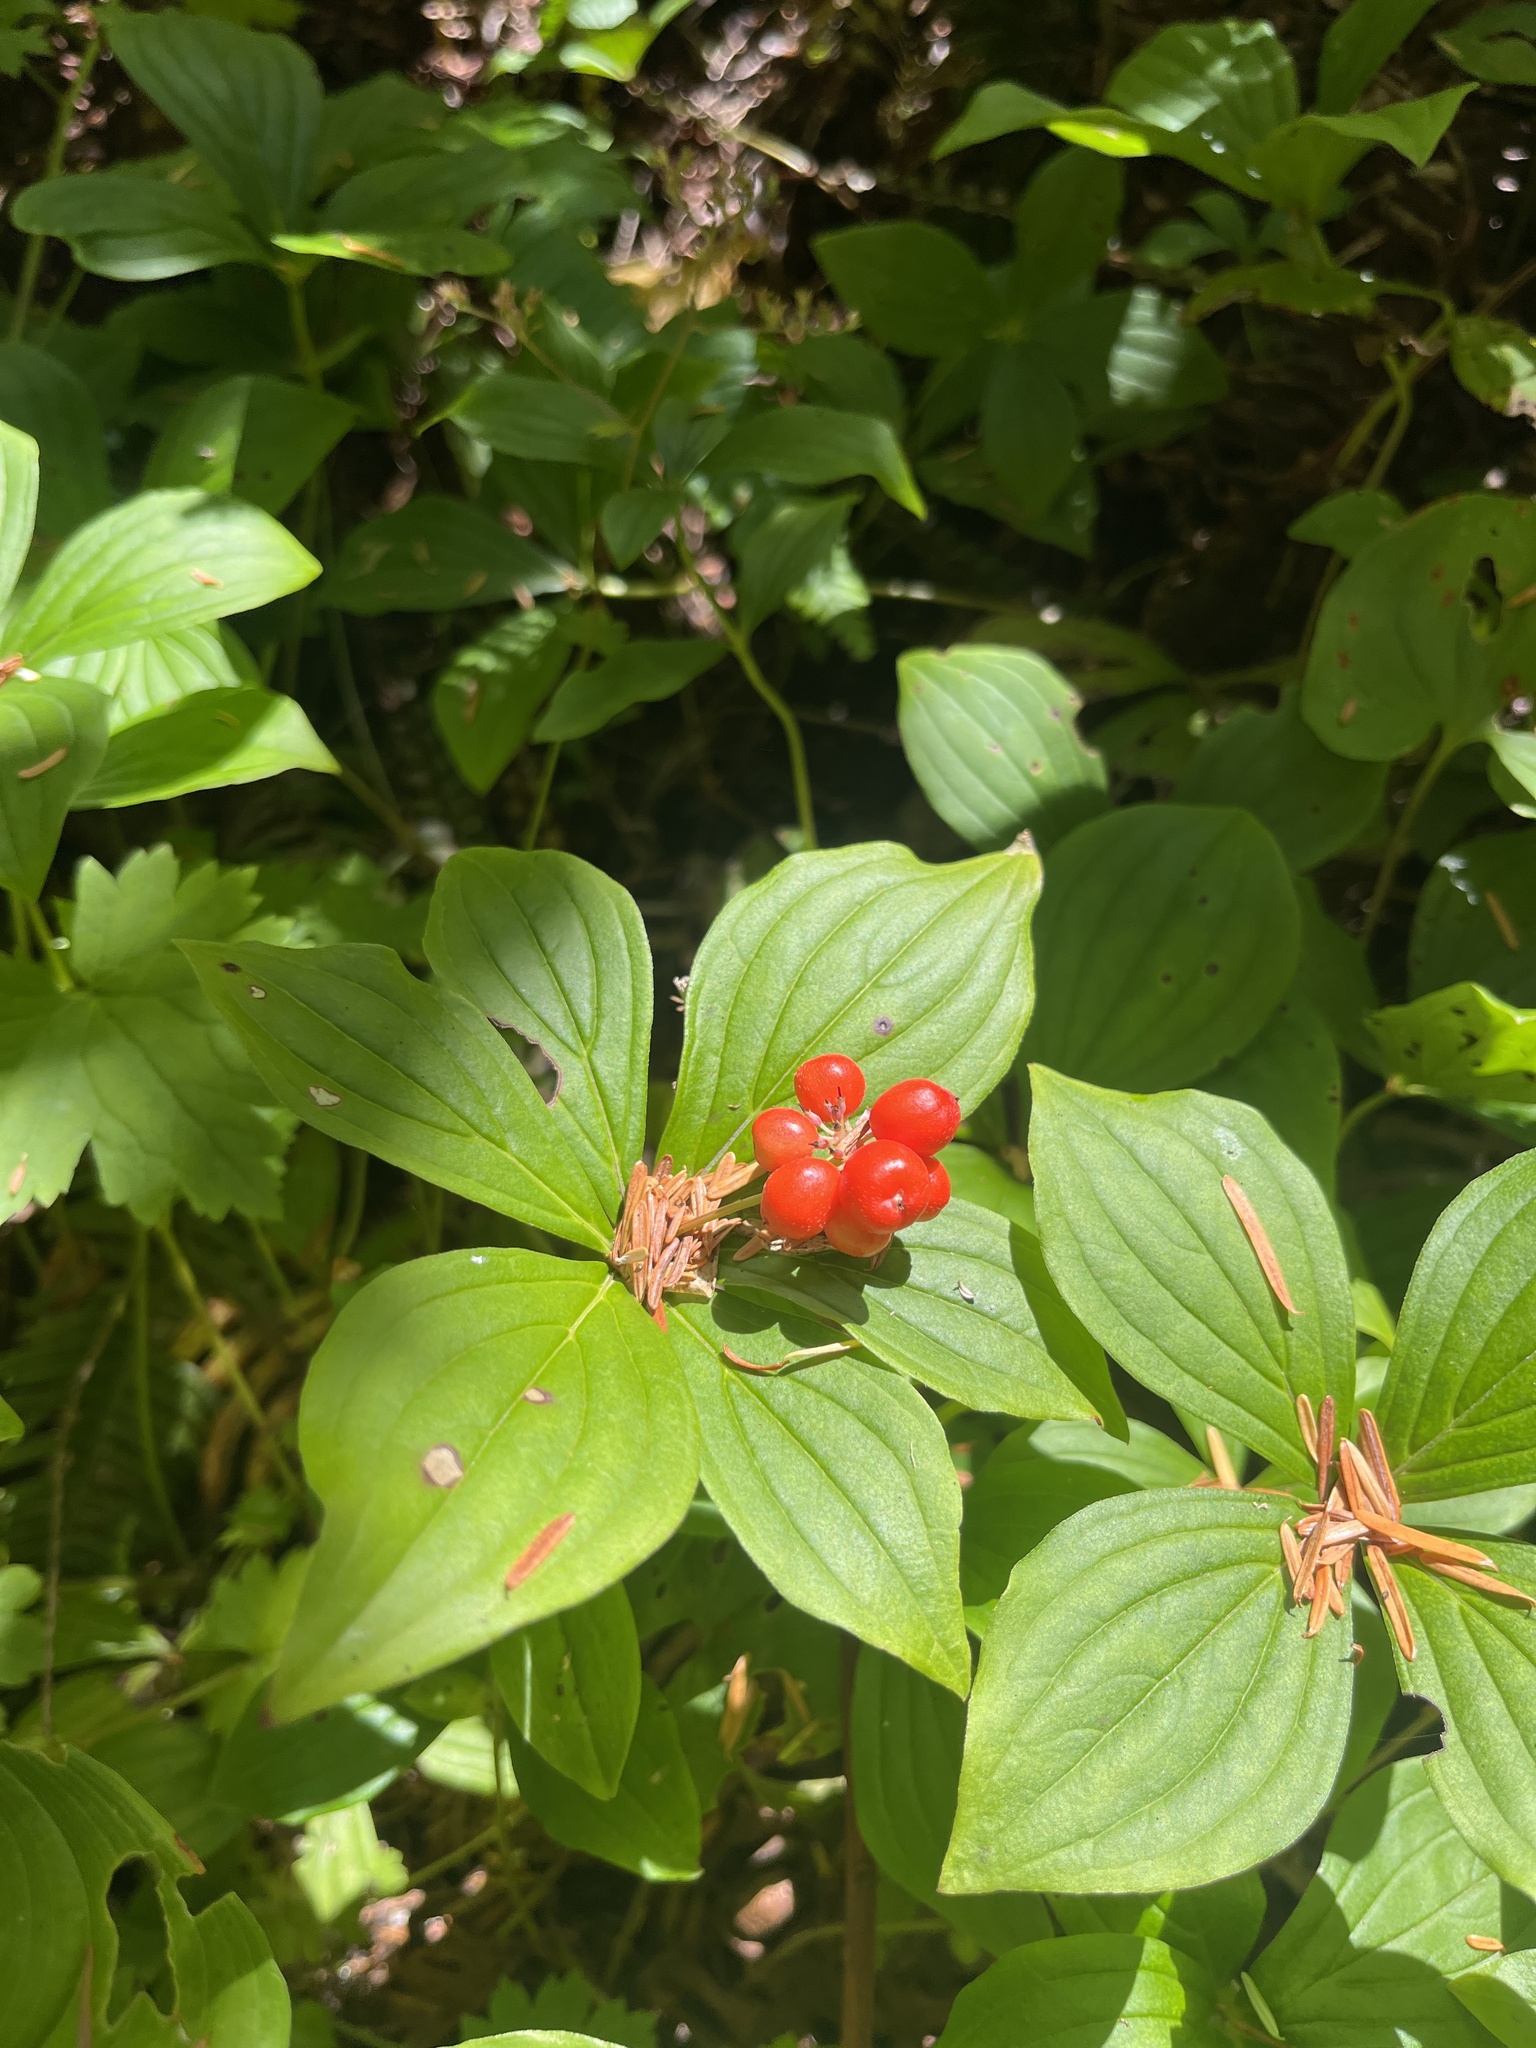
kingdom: Plantae
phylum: Tracheophyta
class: Magnoliopsida
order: Cornales
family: Cornaceae
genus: Cornus
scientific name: Cornus canadensis
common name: Creeping dogwood
